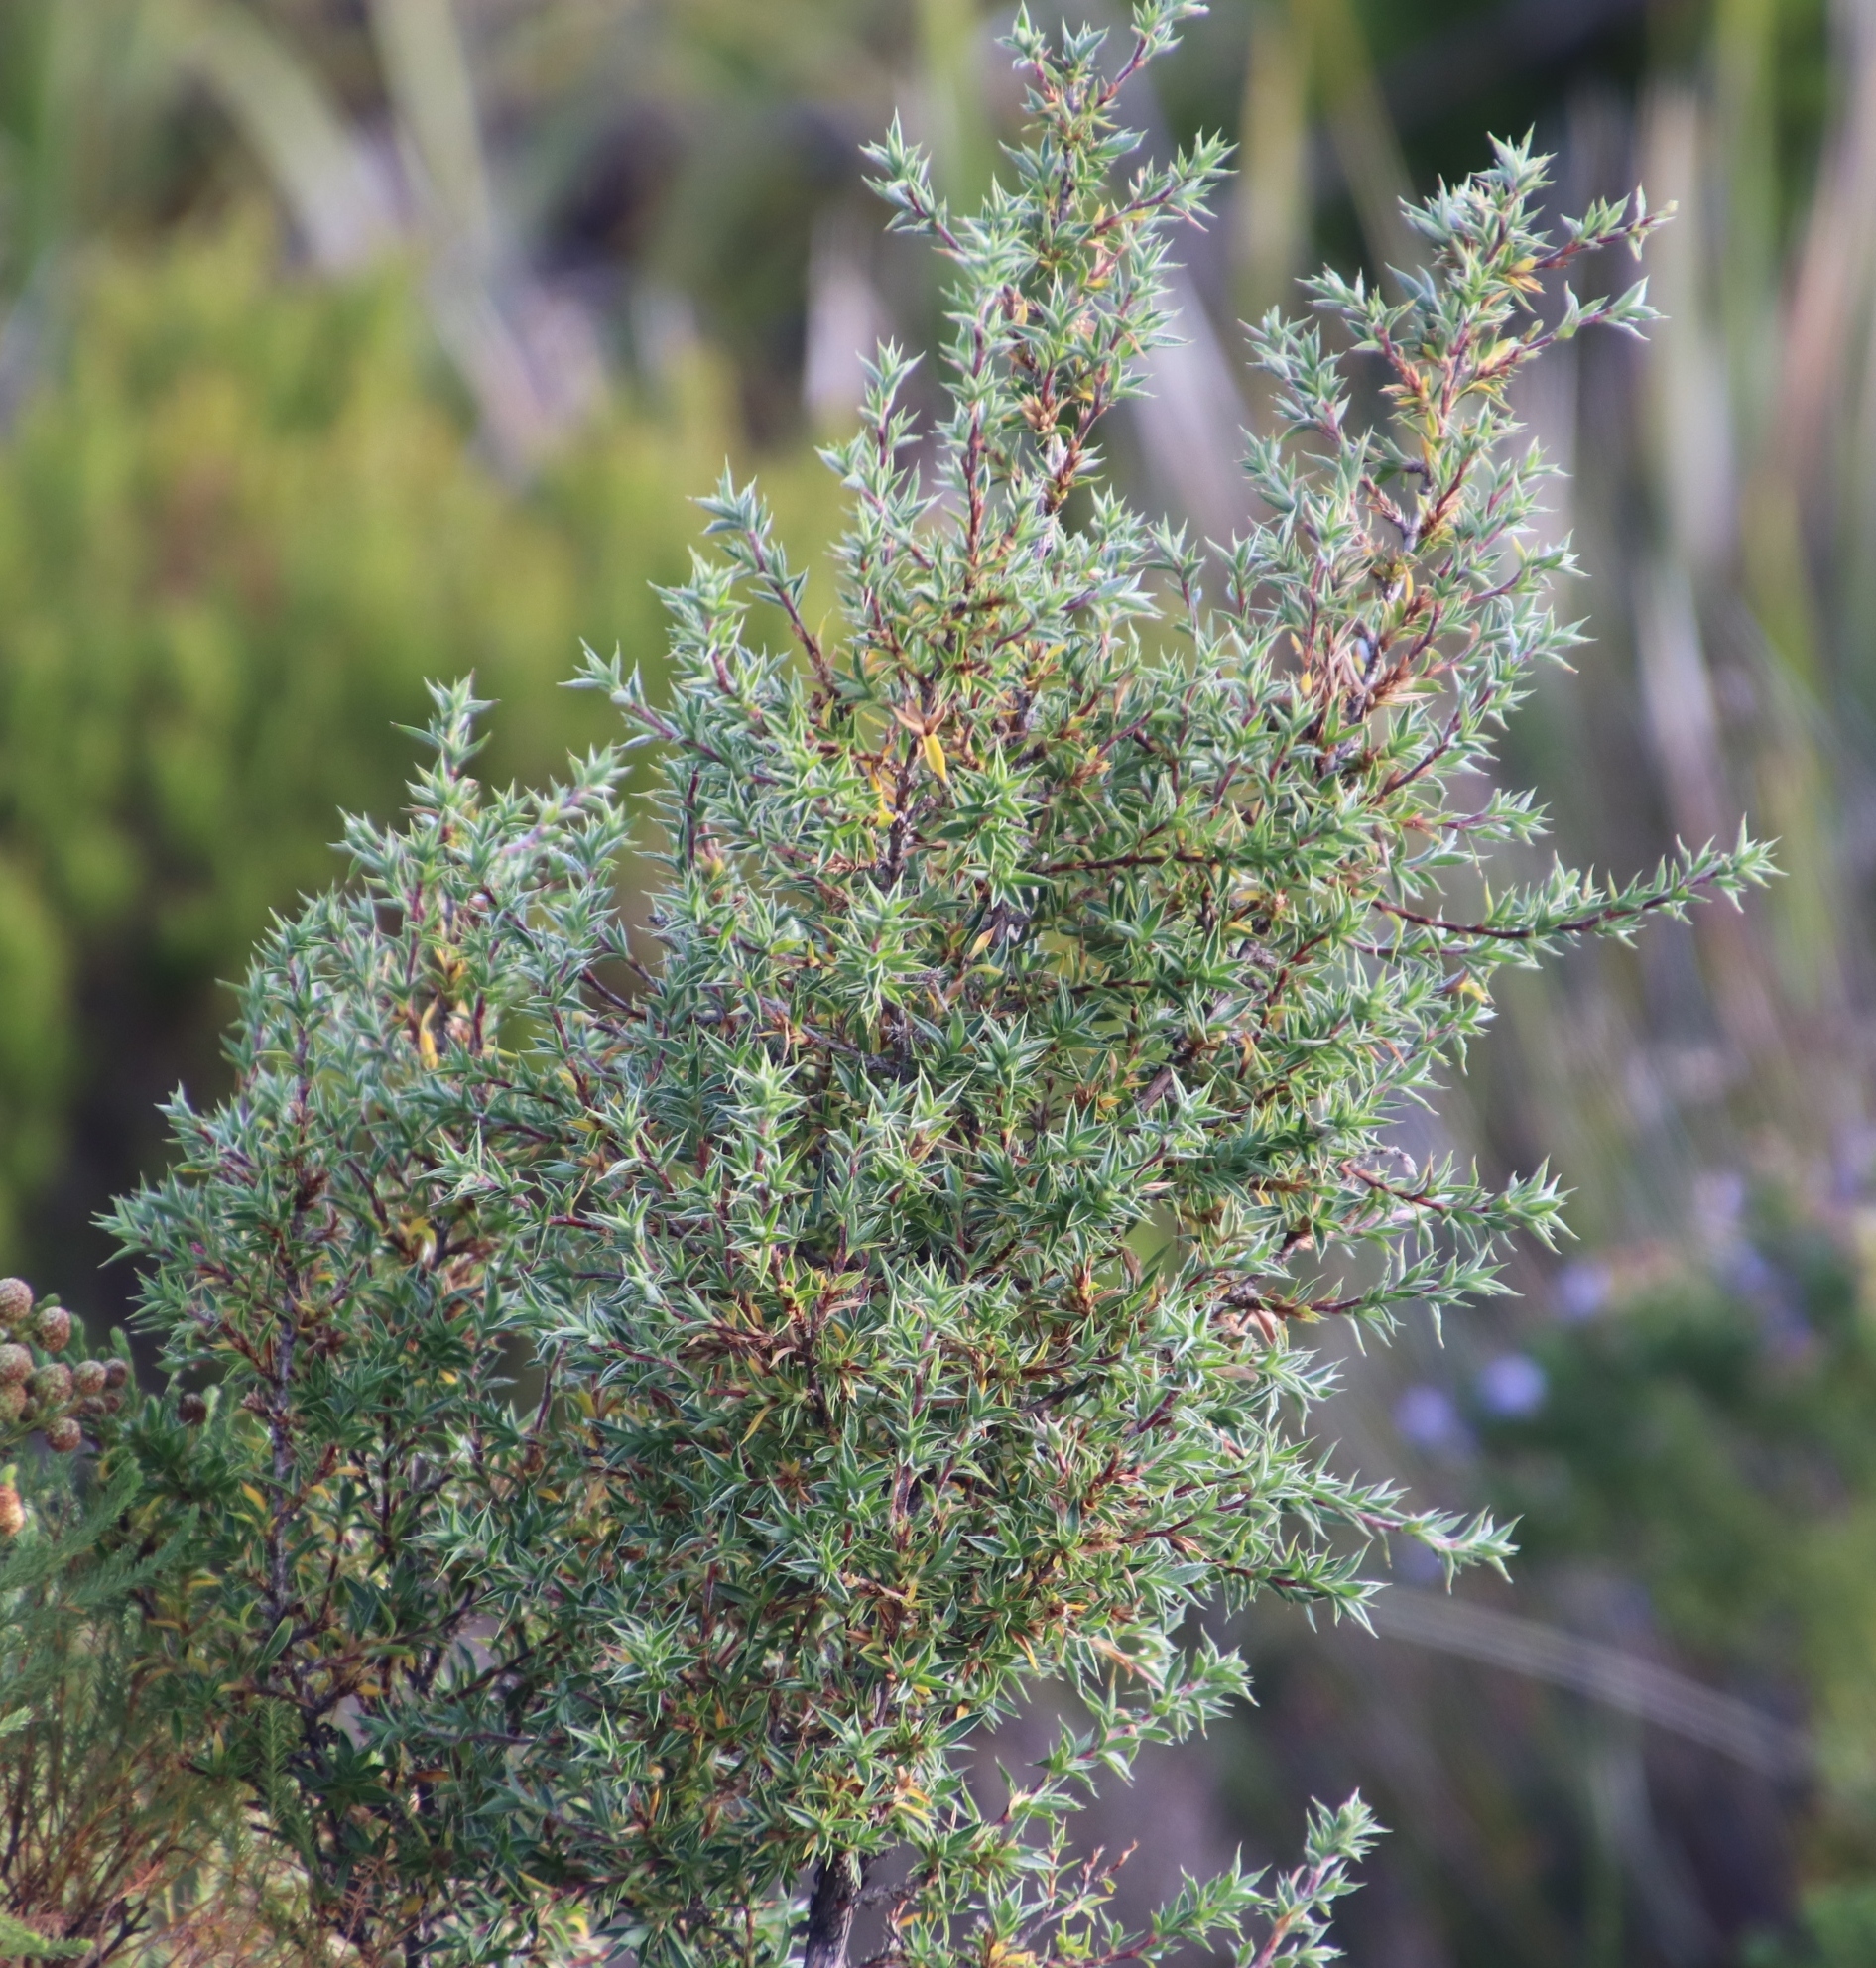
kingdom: Plantae
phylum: Tracheophyta
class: Magnoliopsida
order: Rosales
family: Rosaceae
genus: Cliffortia
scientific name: Cliffortia ruscifolia
